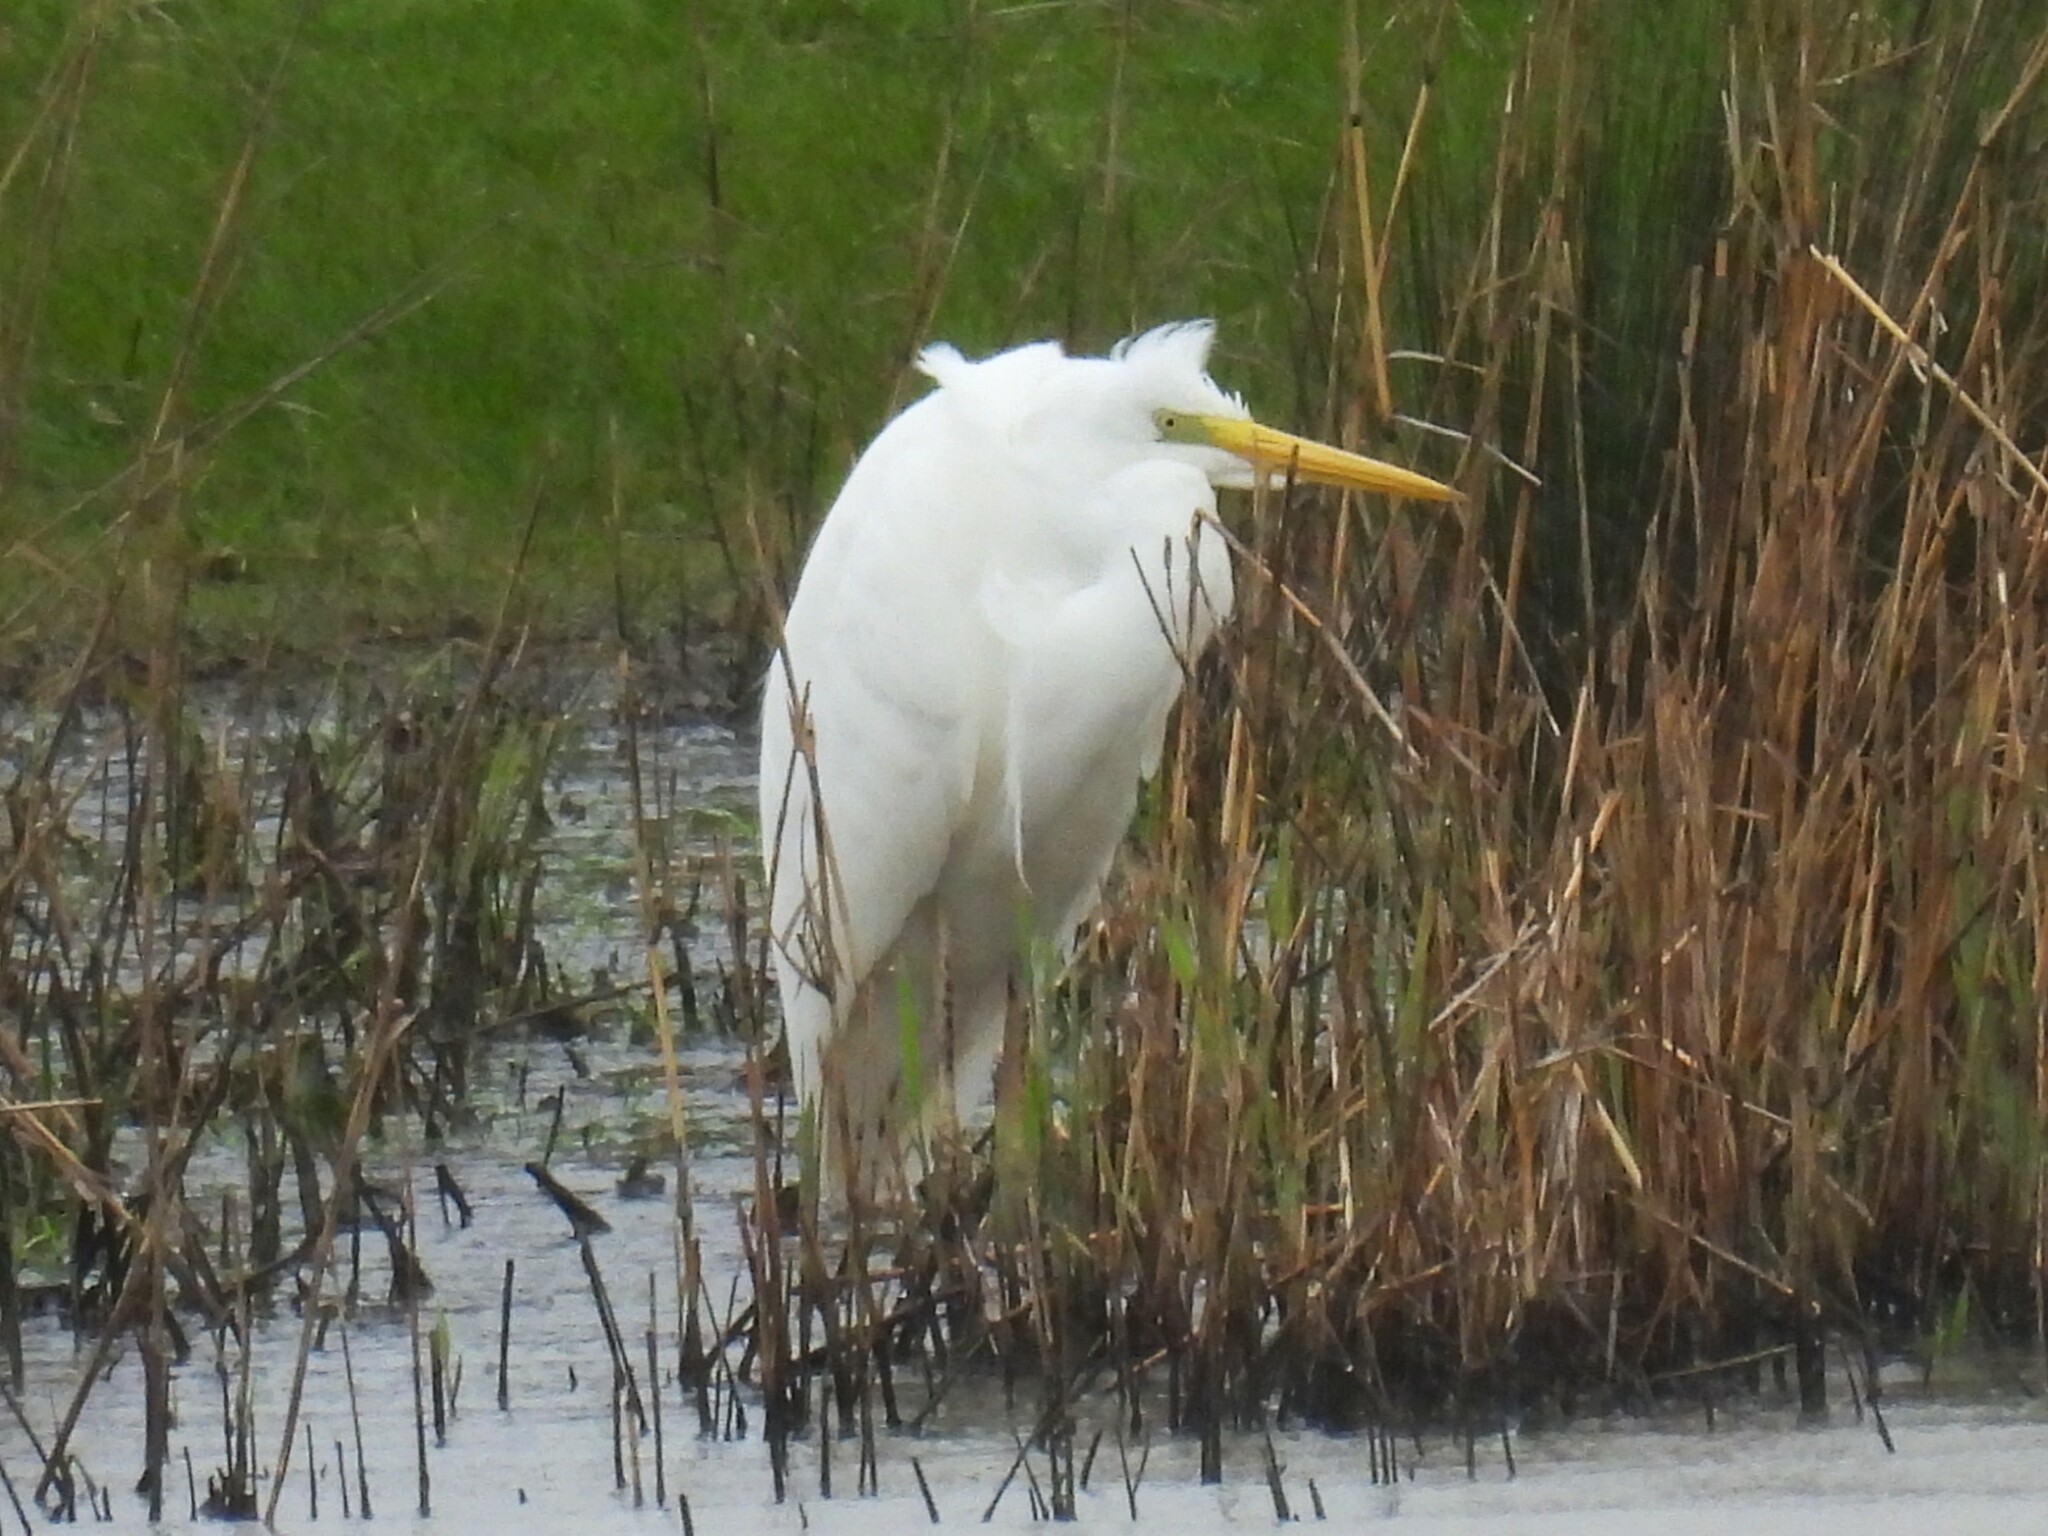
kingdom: Animalia
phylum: Chordata
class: Aves
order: Pelecaniformes
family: Ardeidae
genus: Ardea
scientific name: Ardea alba
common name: Great egret
